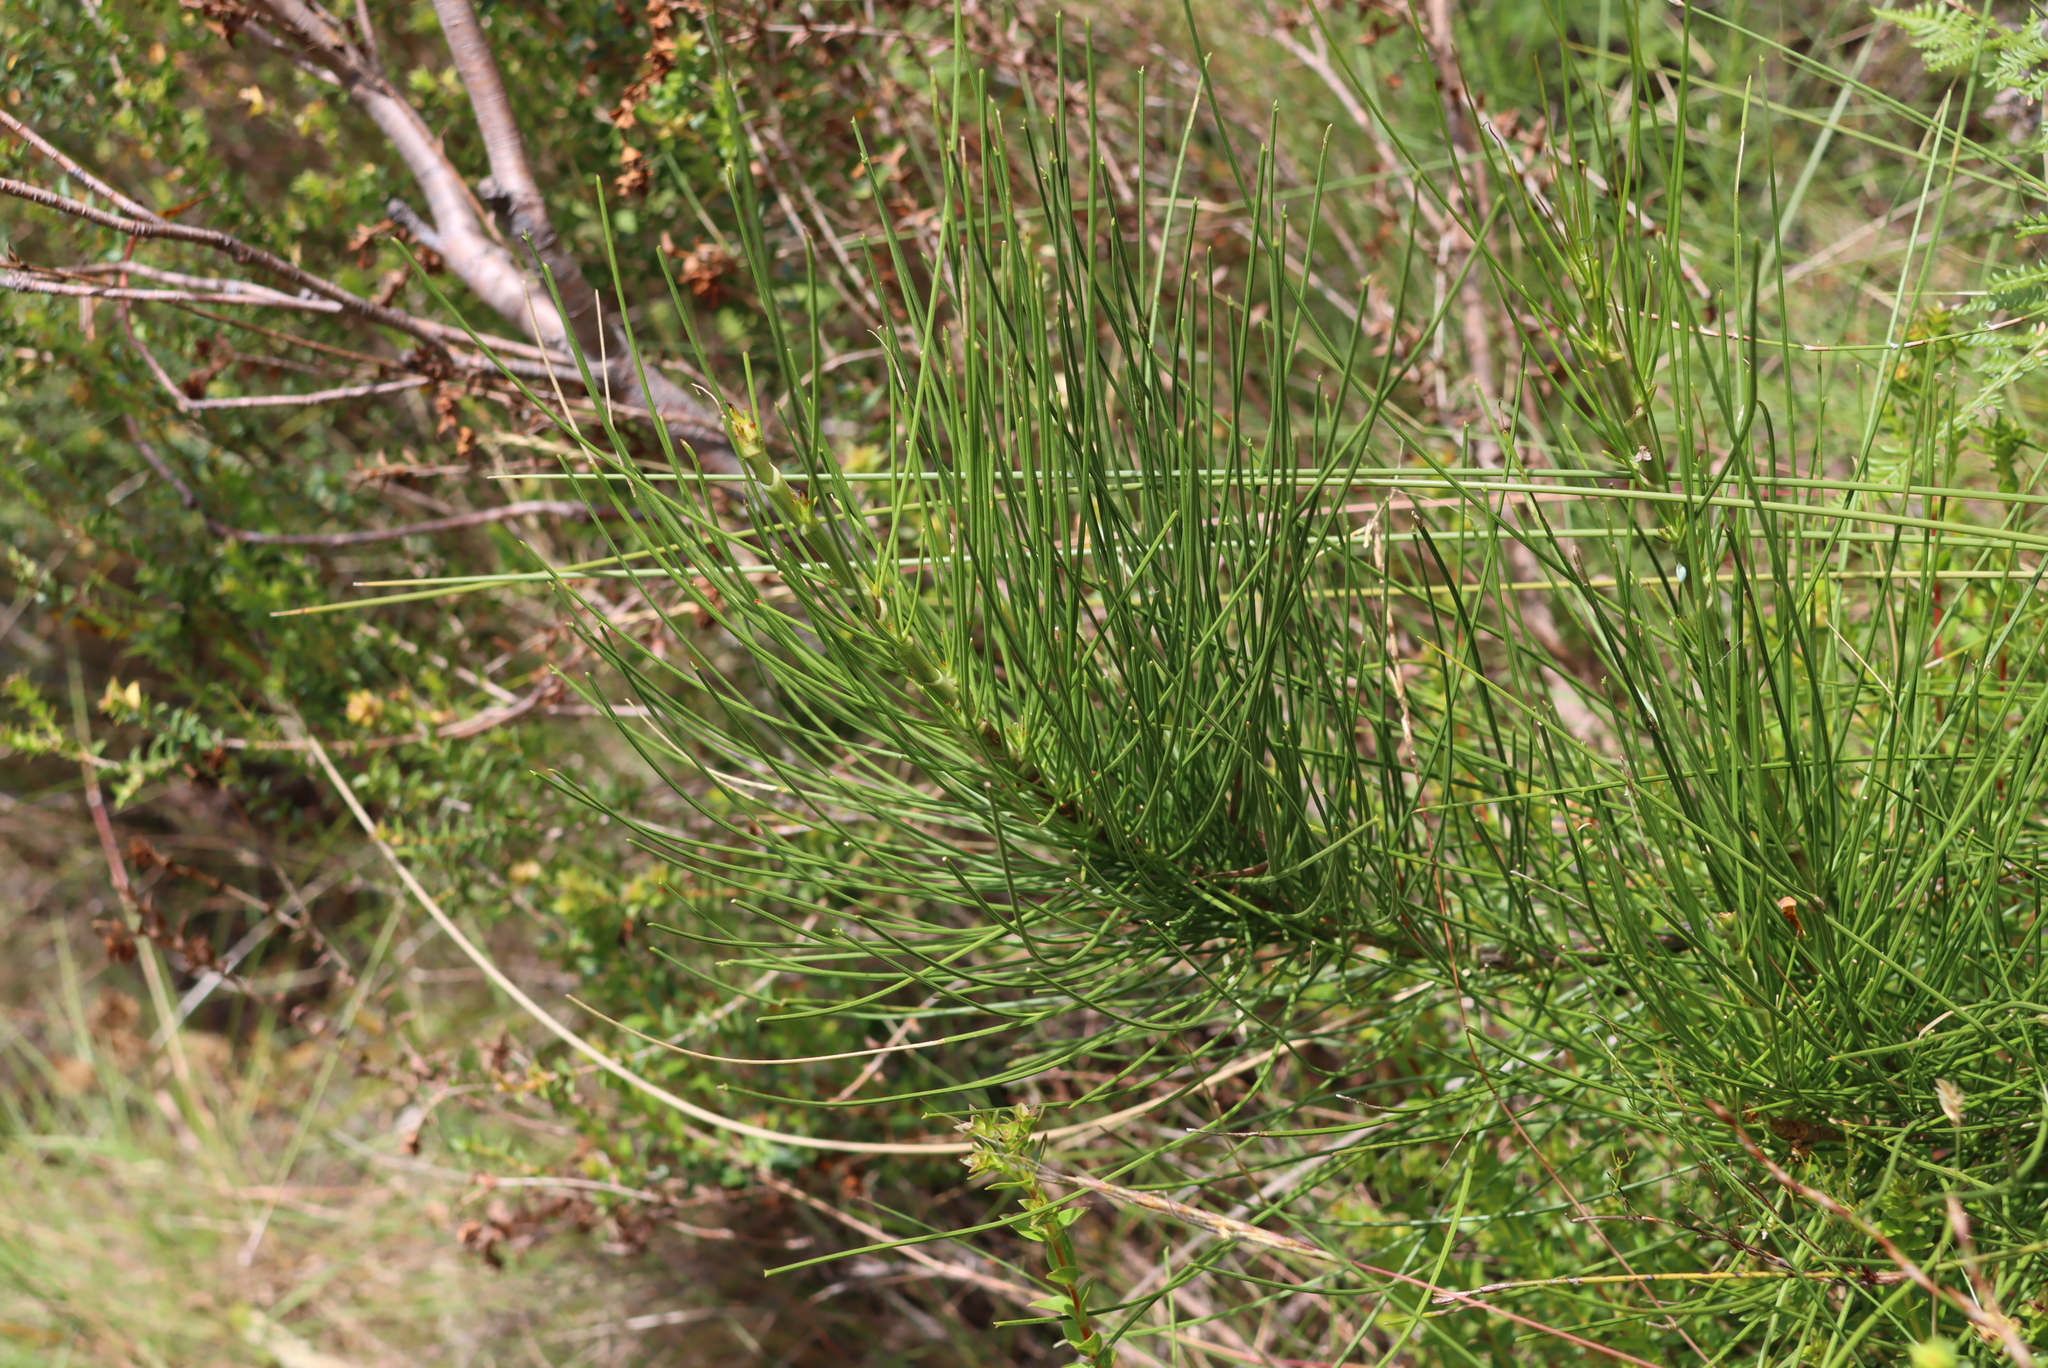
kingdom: Plantae
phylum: Tracheophyta
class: Magnoliopsida
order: Apiales
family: Apiaceae
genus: Anginon
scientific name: Anginon difforme
